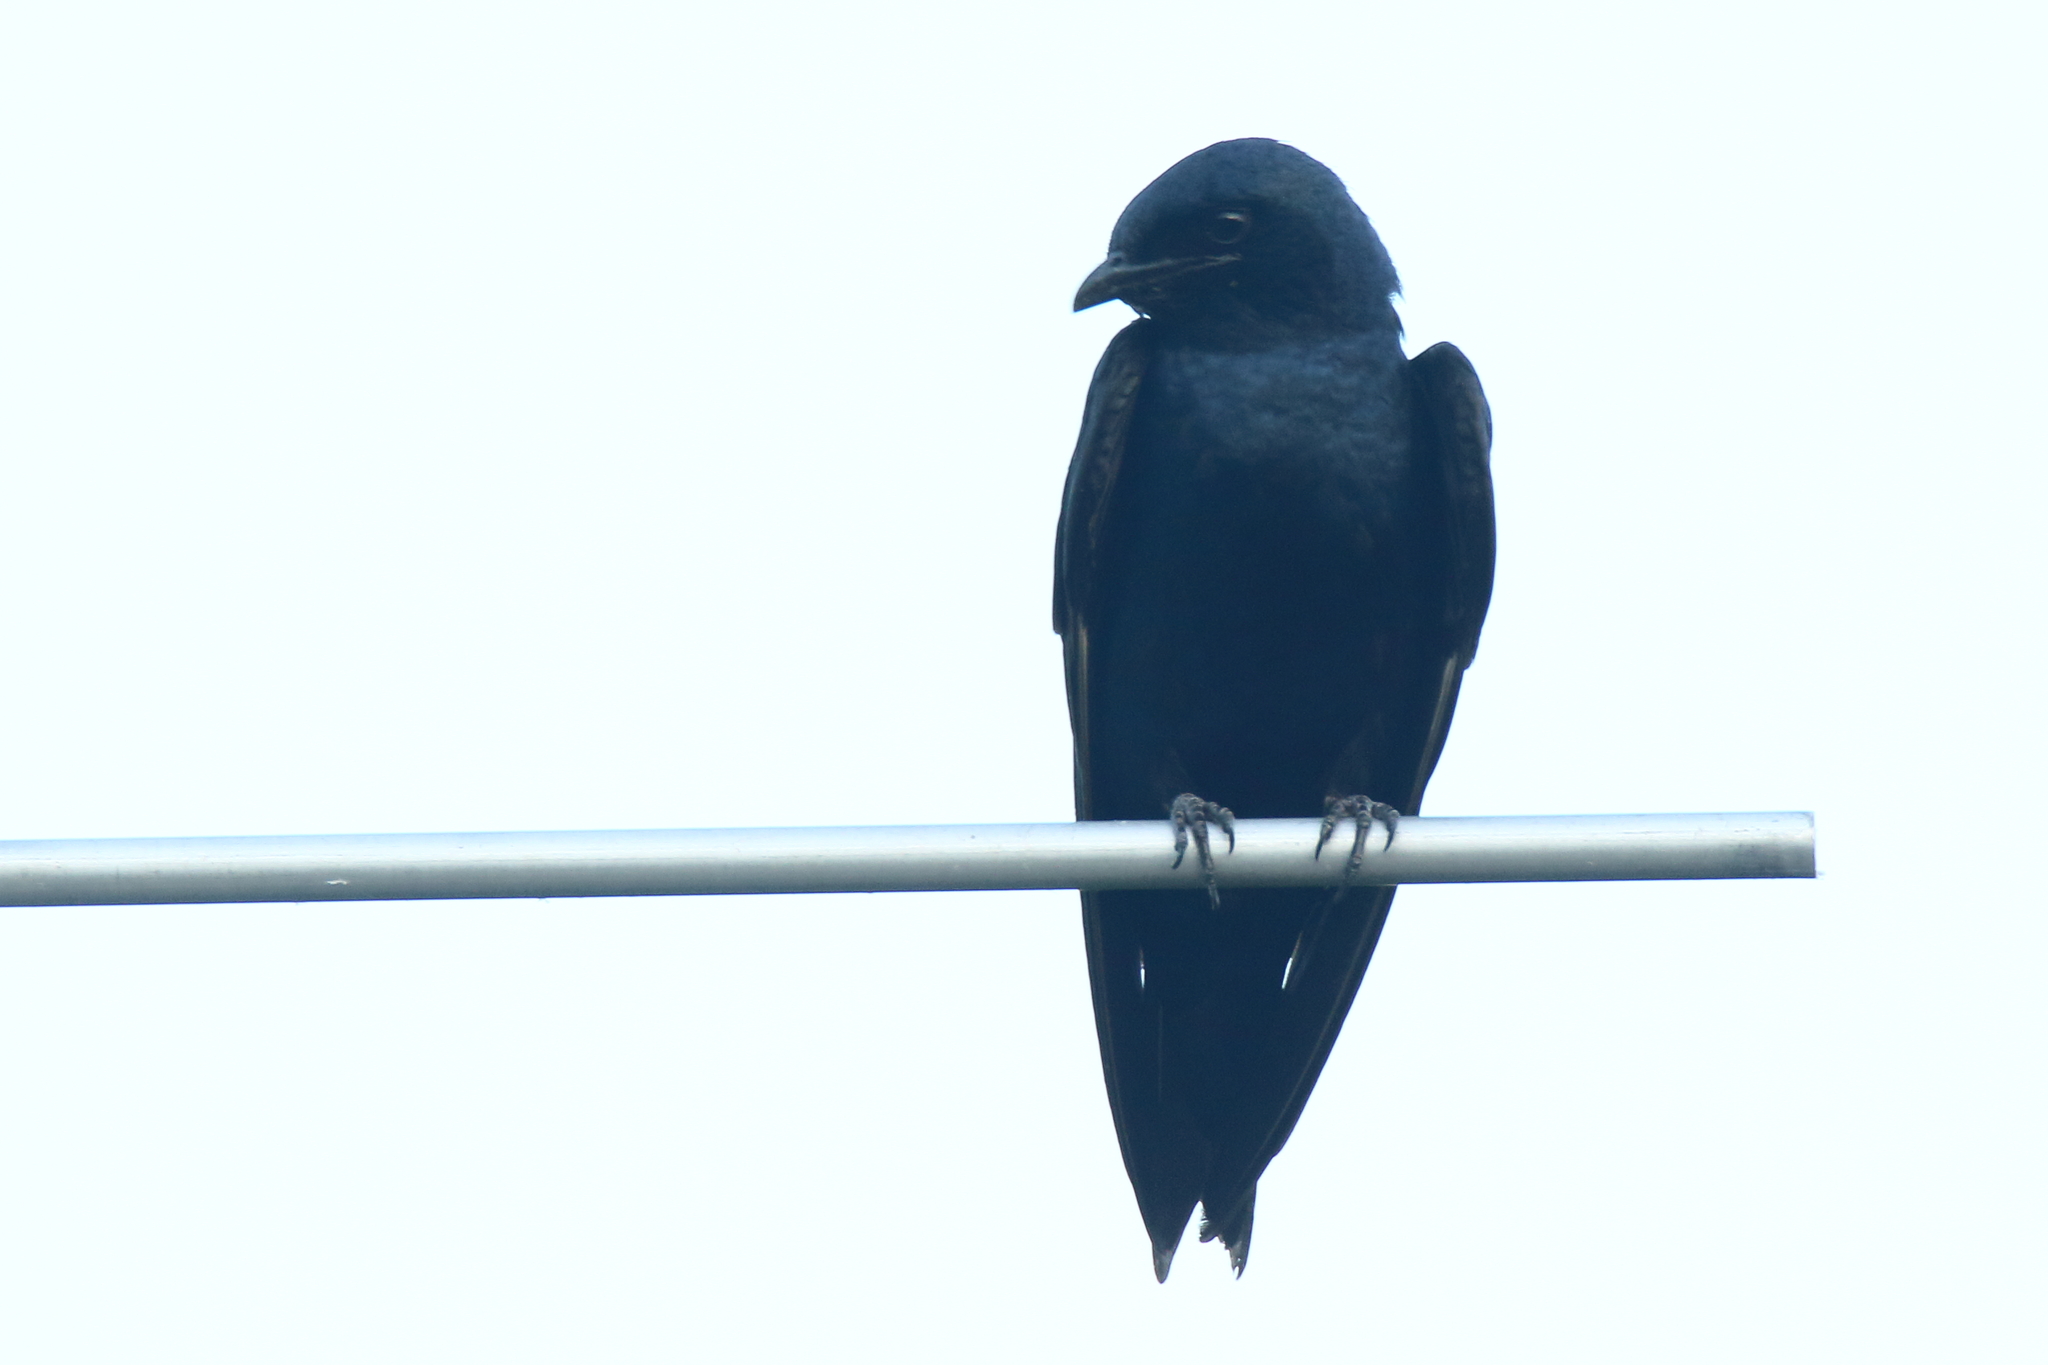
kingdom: Animalia
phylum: Chordata
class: Aves
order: Passeriformes
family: Hirundinidae
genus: Progne
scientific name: Progne subis
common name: Purple martin
